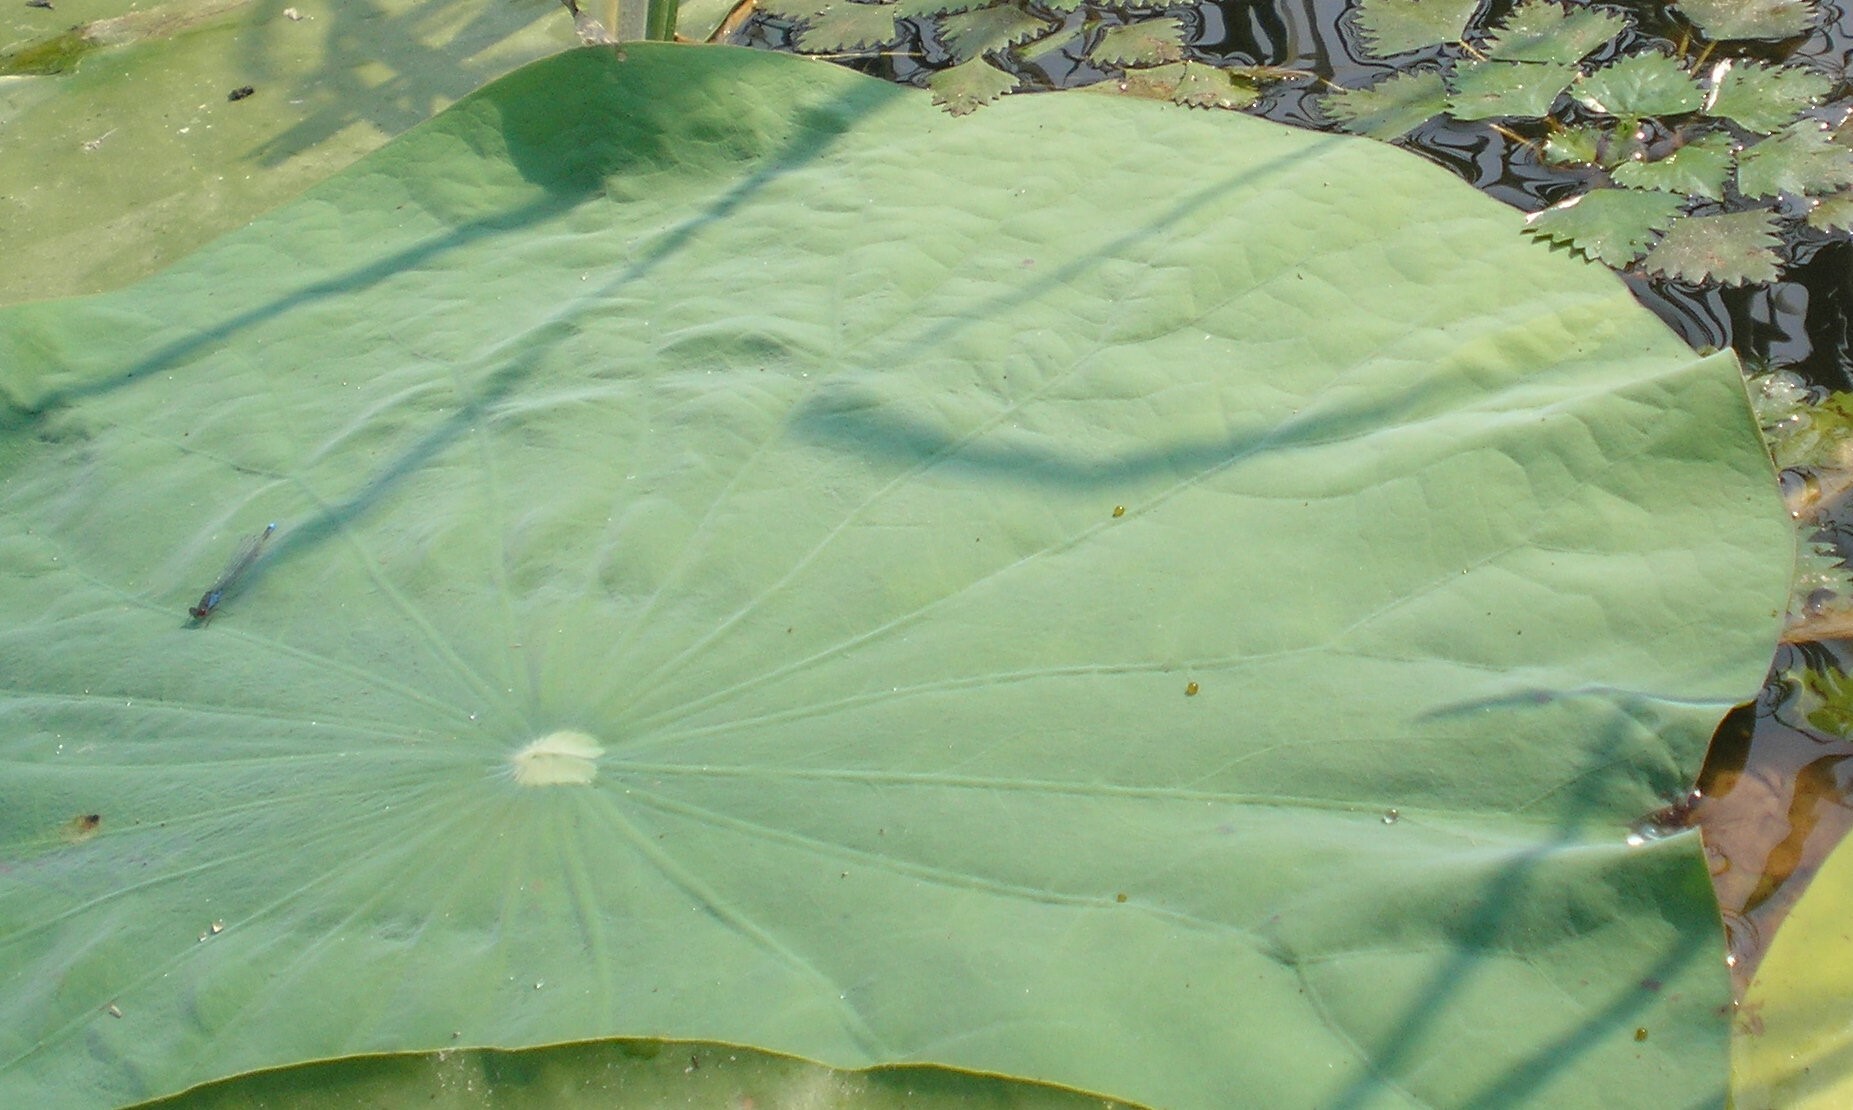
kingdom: Plantae
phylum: Tracheophyta
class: Magnoliopsida
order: Proteales
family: Nelumbonaceae
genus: Nelumbo
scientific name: Nelumbo nucifera
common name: Sacred lotus
